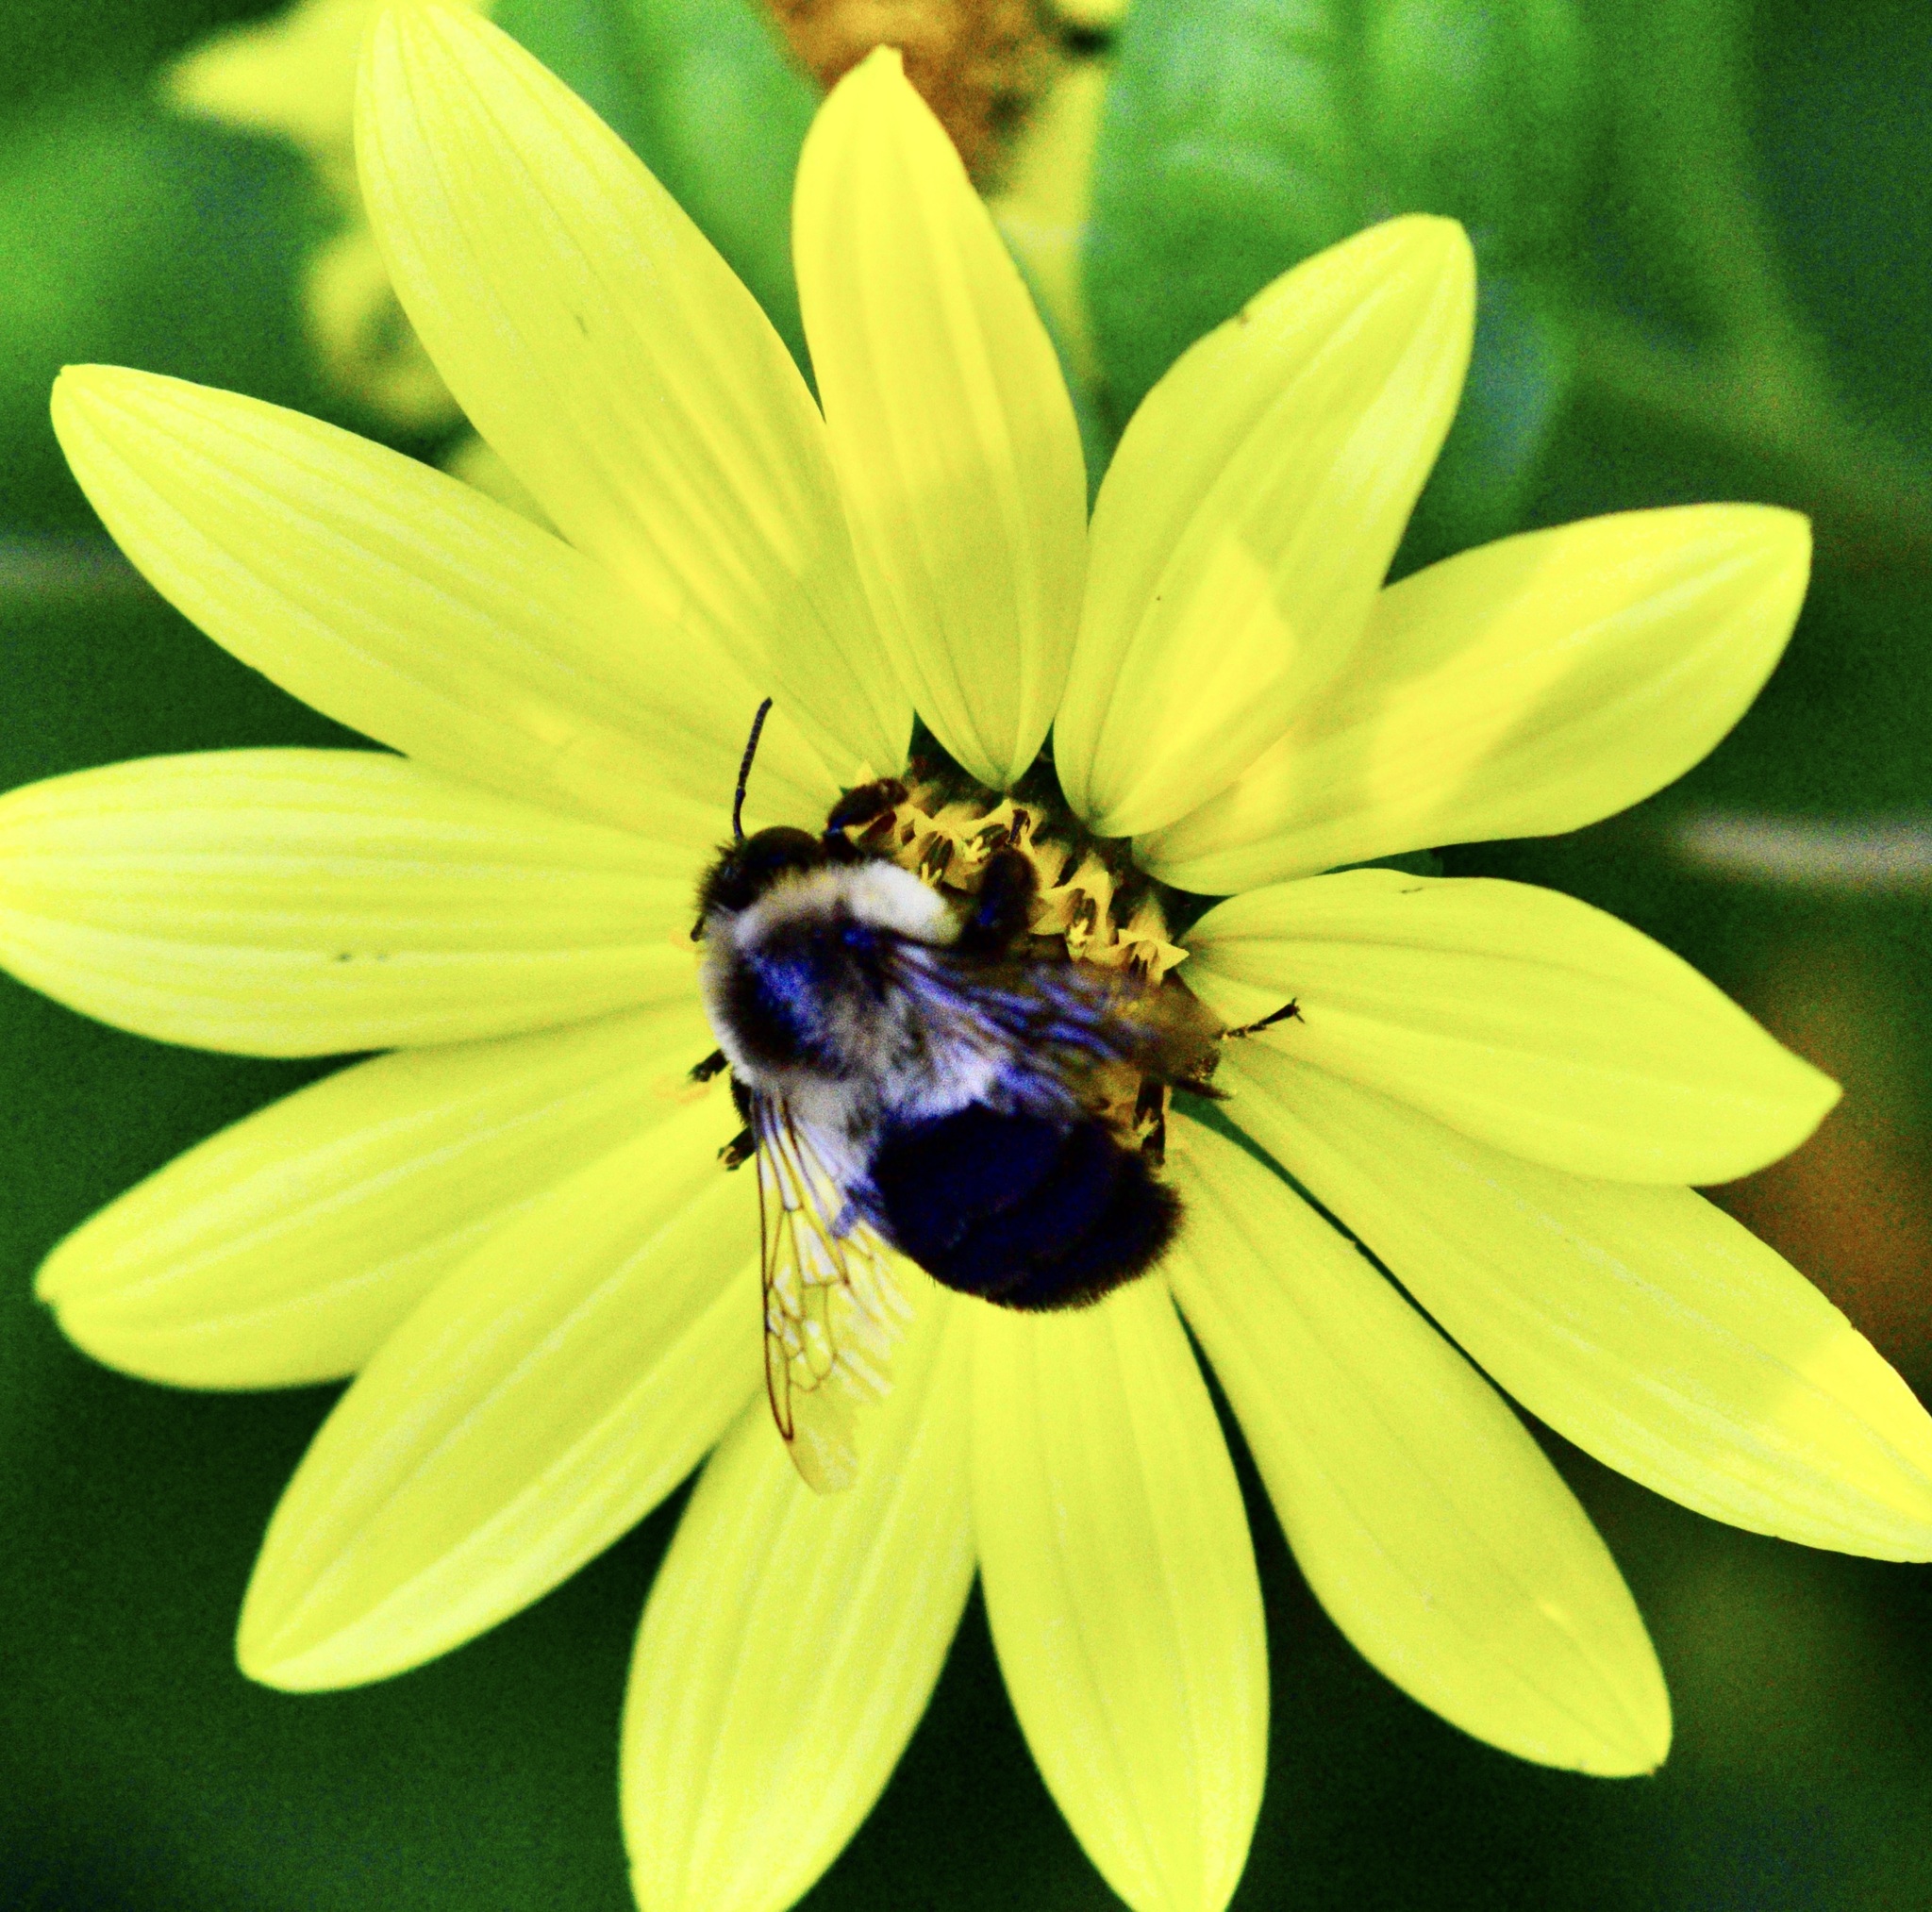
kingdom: Animalia
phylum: Arthropoda
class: Insecta
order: Hymenoptera
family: Apidae
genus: Bombus
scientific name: Bombus impatiens
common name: Common eastern bumble bee
